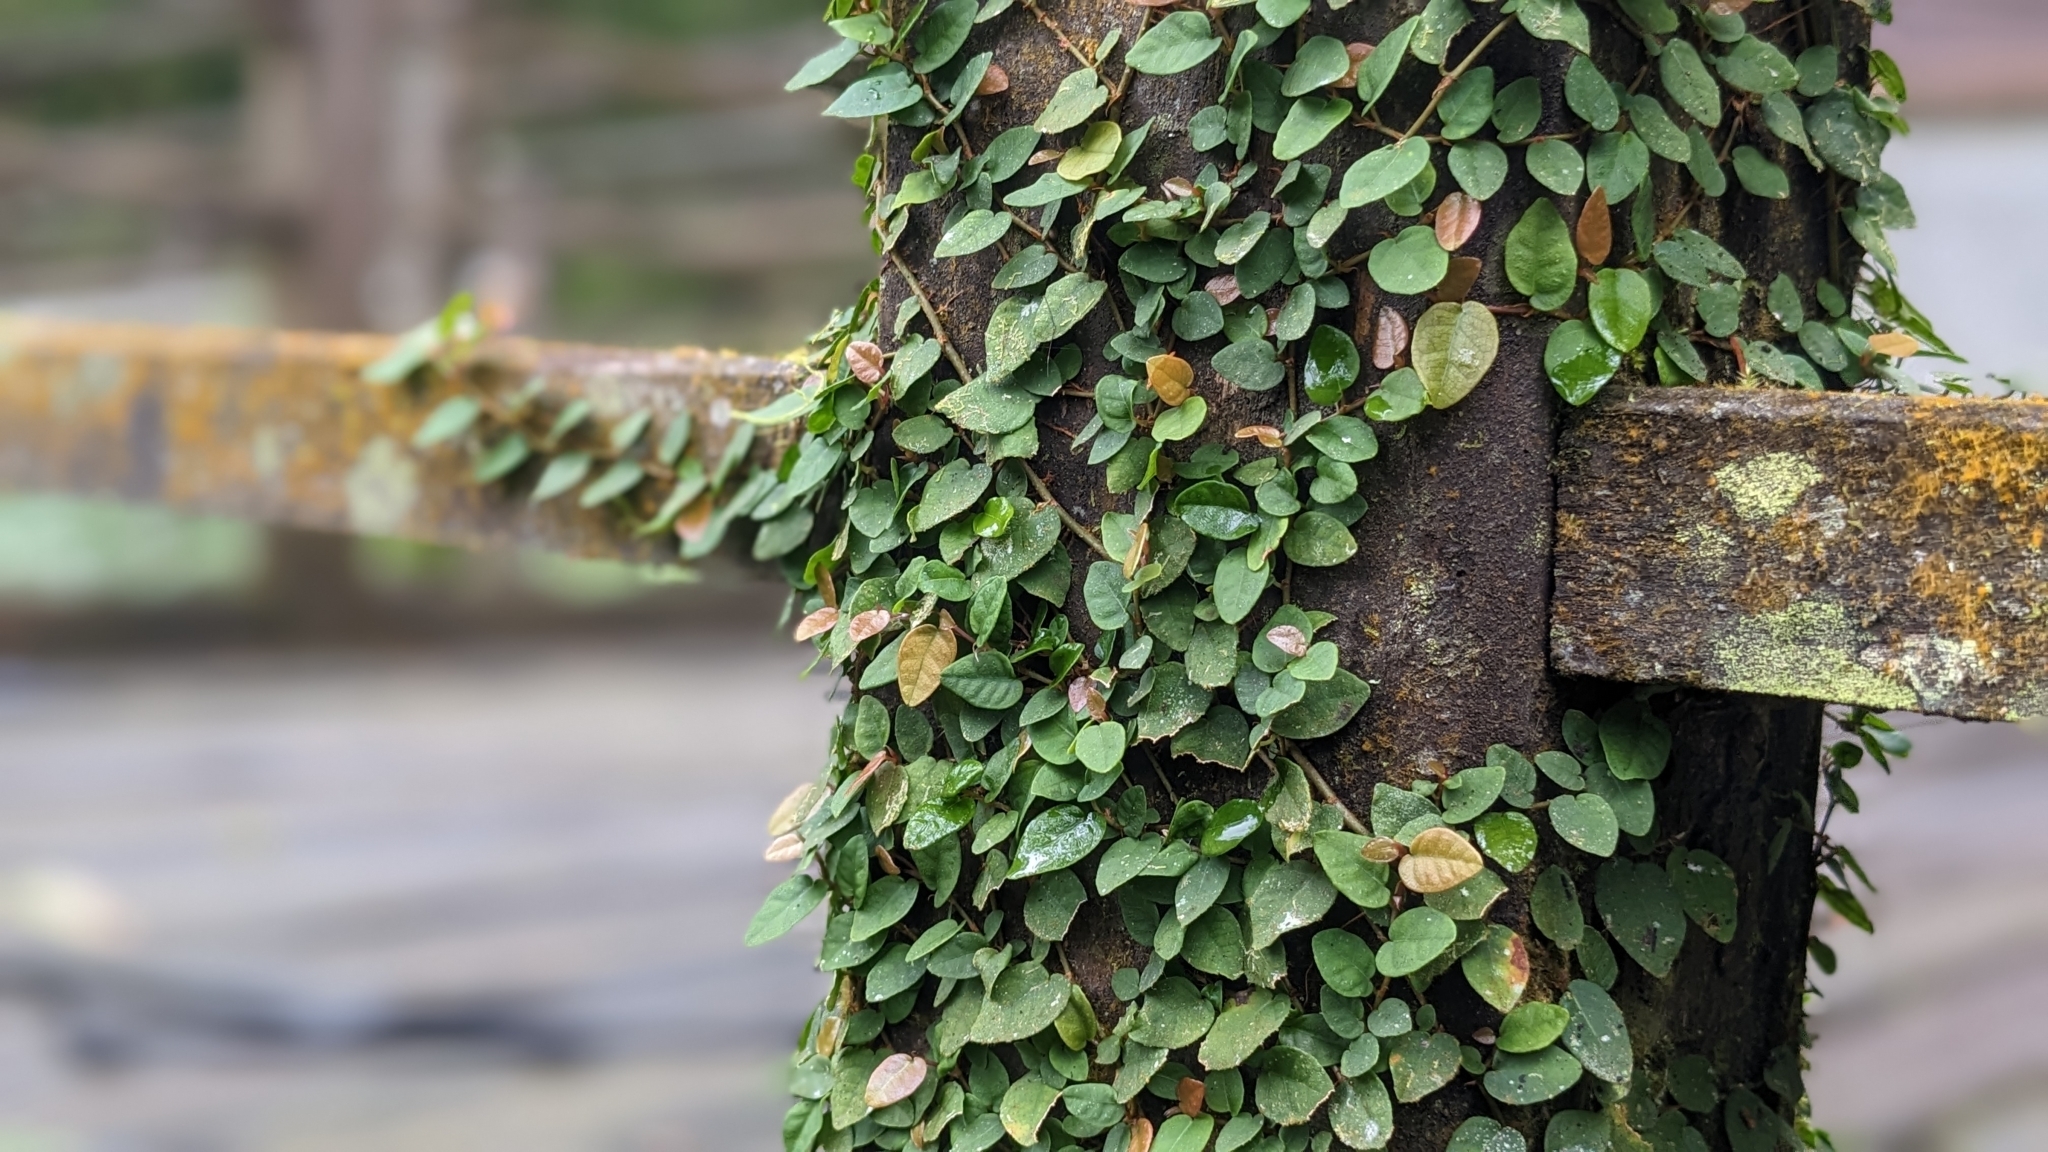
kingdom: Plantae
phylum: Tracheophyta
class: Magnoliopsida
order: Rosales
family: Moraceae
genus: Ficus
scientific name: Ficus pumila
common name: Climbingfig
